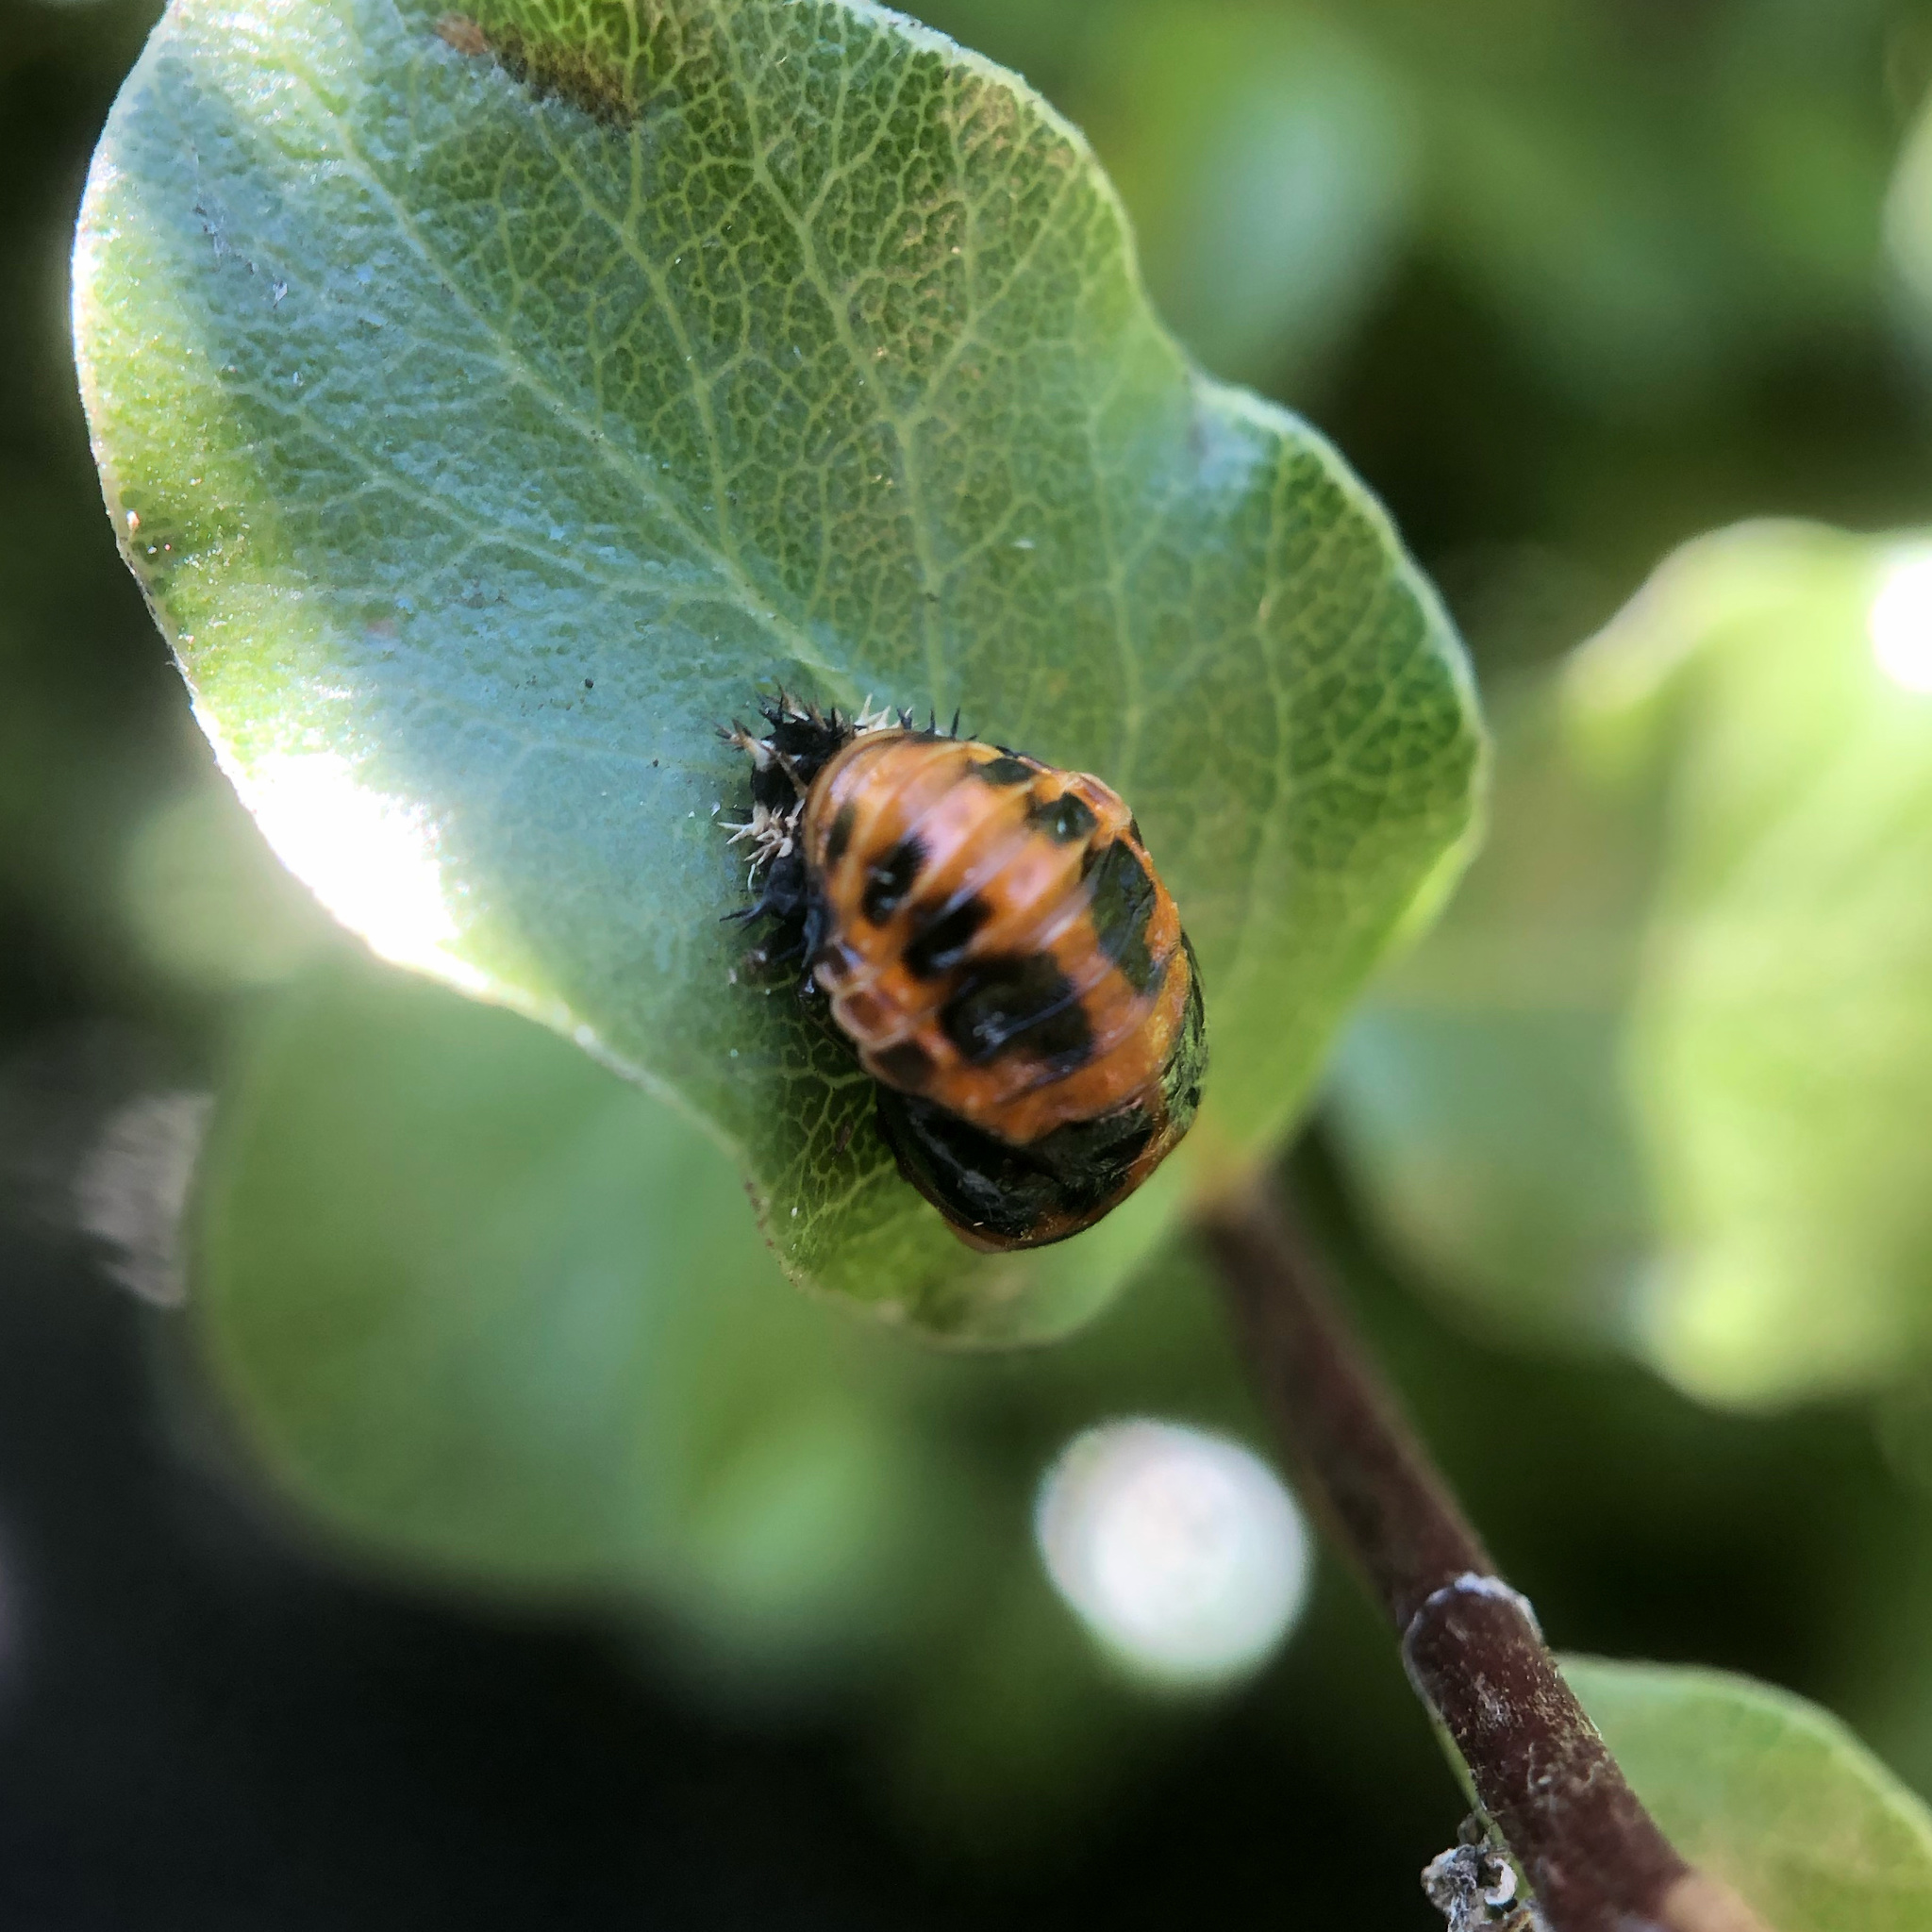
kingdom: Animalia
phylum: Arthropoda
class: Insecta
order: Coleoptera
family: Coccinellidae
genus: Harmonia
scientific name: Harmonia axyridis
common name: Harlequin ladybird
